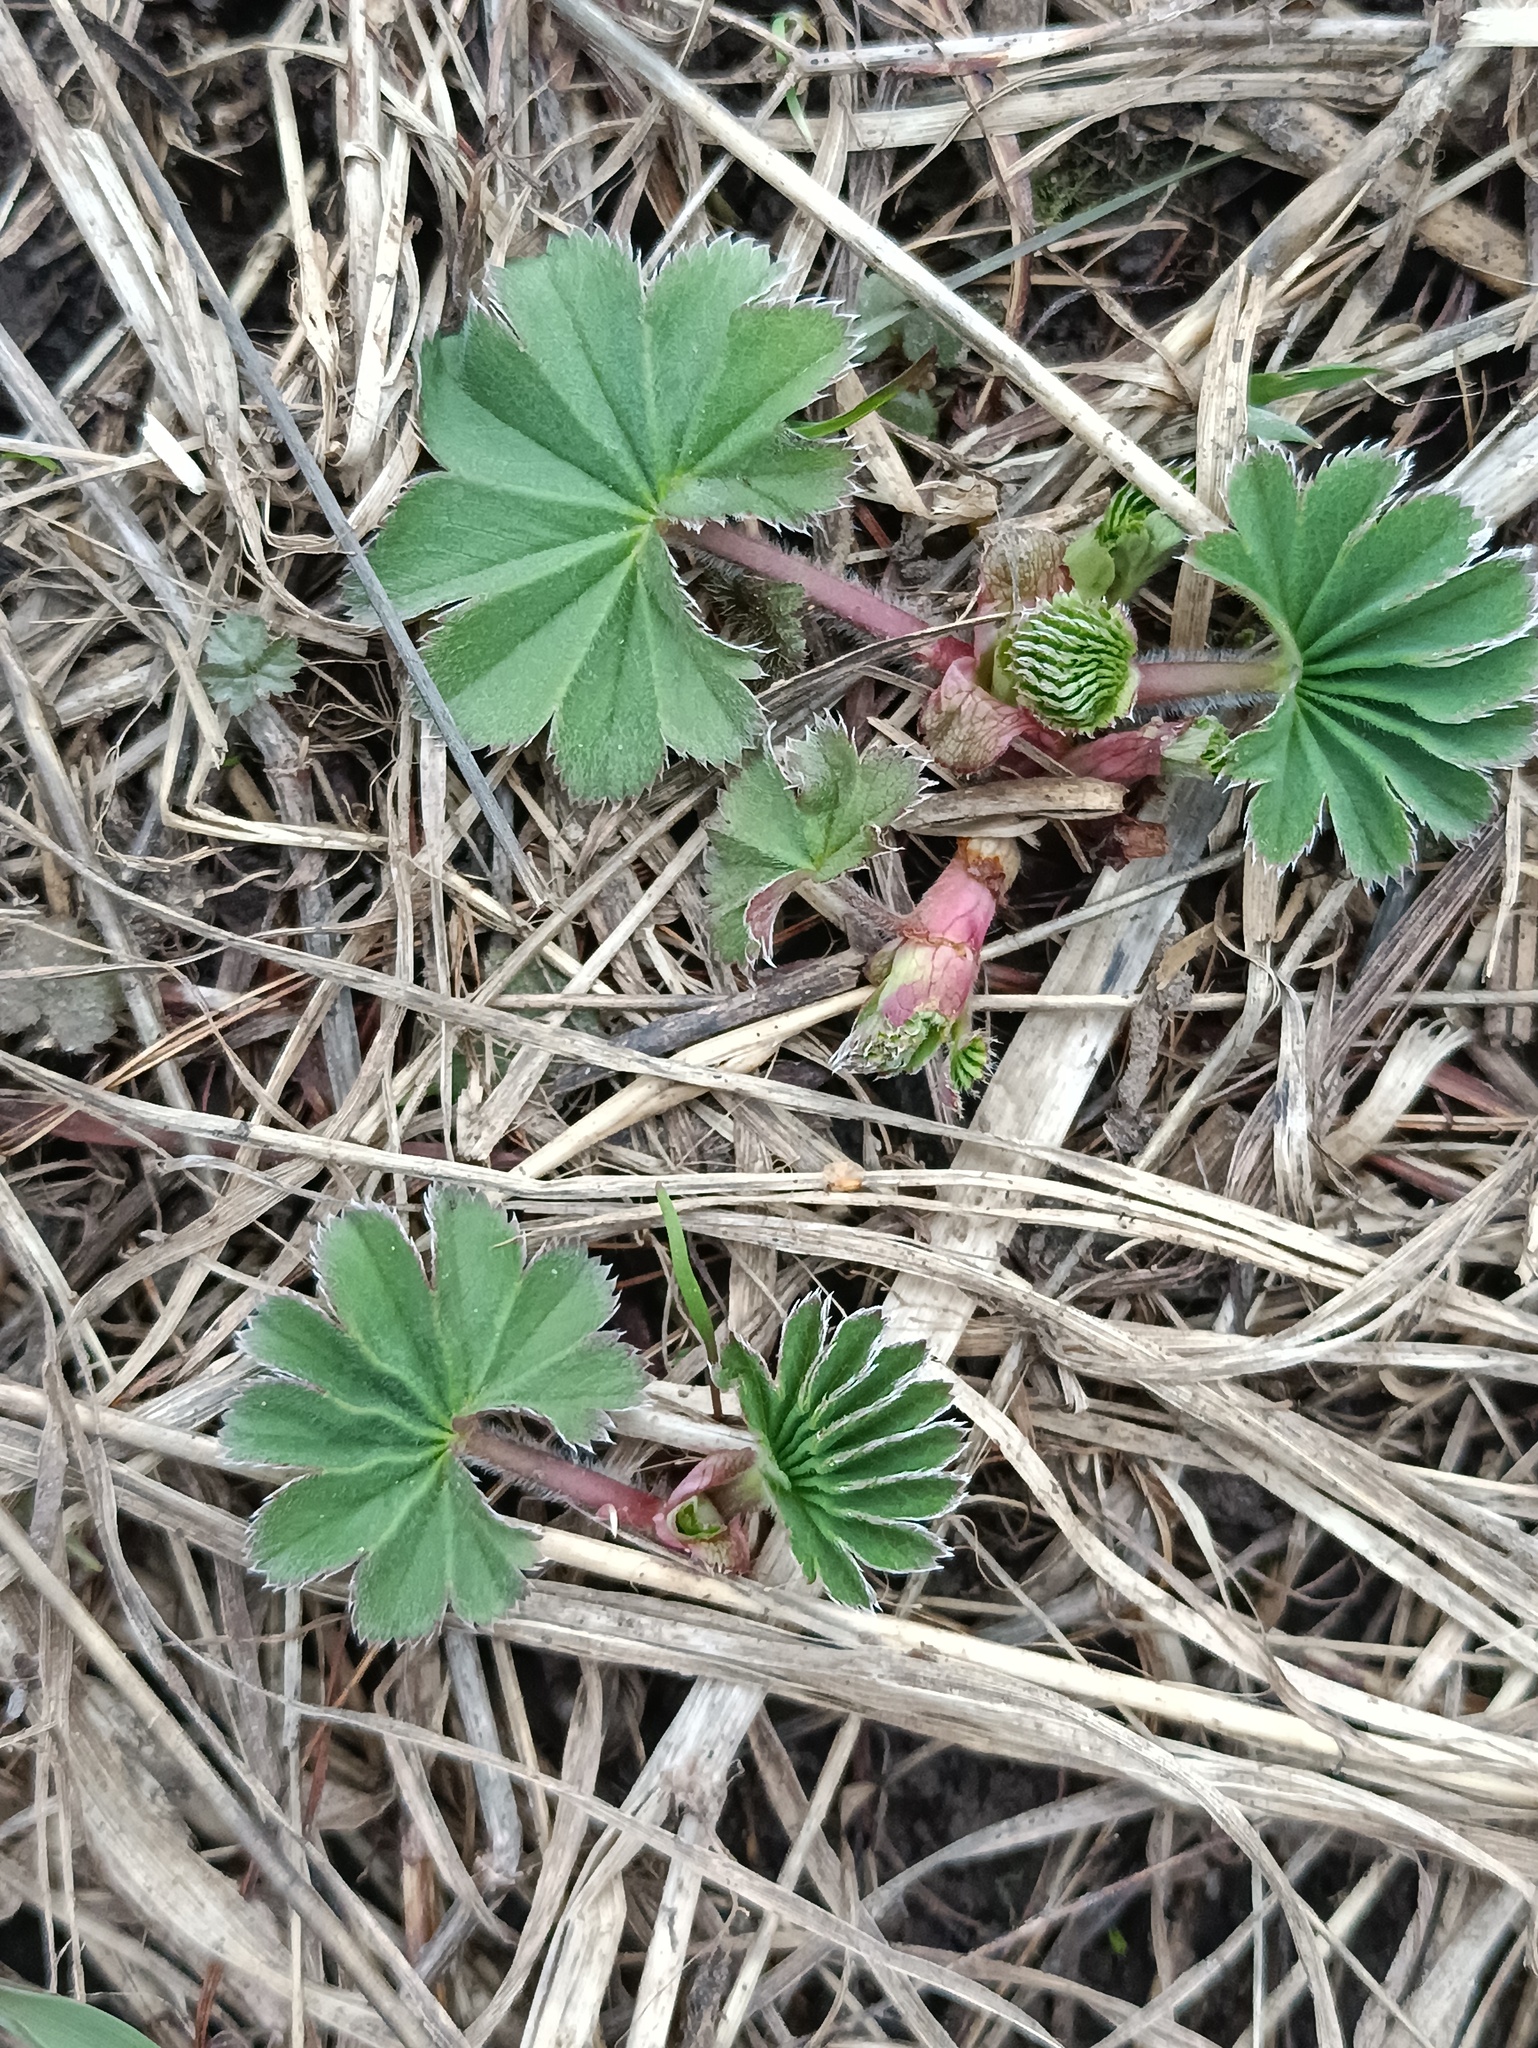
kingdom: Plantae
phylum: Tracheophyta
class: Magnoliopsida
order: Rosales
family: Rosaceae
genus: Alchemilla
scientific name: Alchemilla
